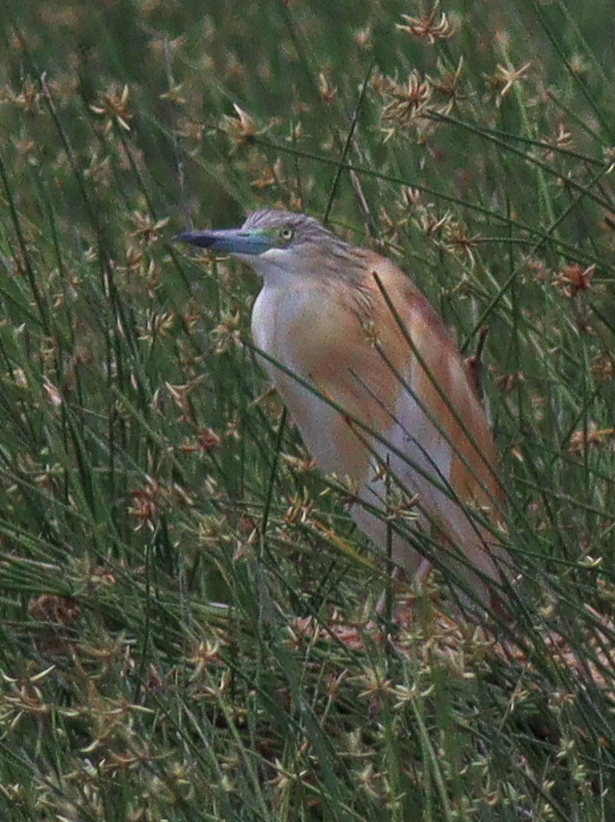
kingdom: Animalia
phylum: Chordata
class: Aves
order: Pelecaniformes
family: Ardeidae
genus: Ardeola
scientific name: Ardeola ralloides
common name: Squacco heron
